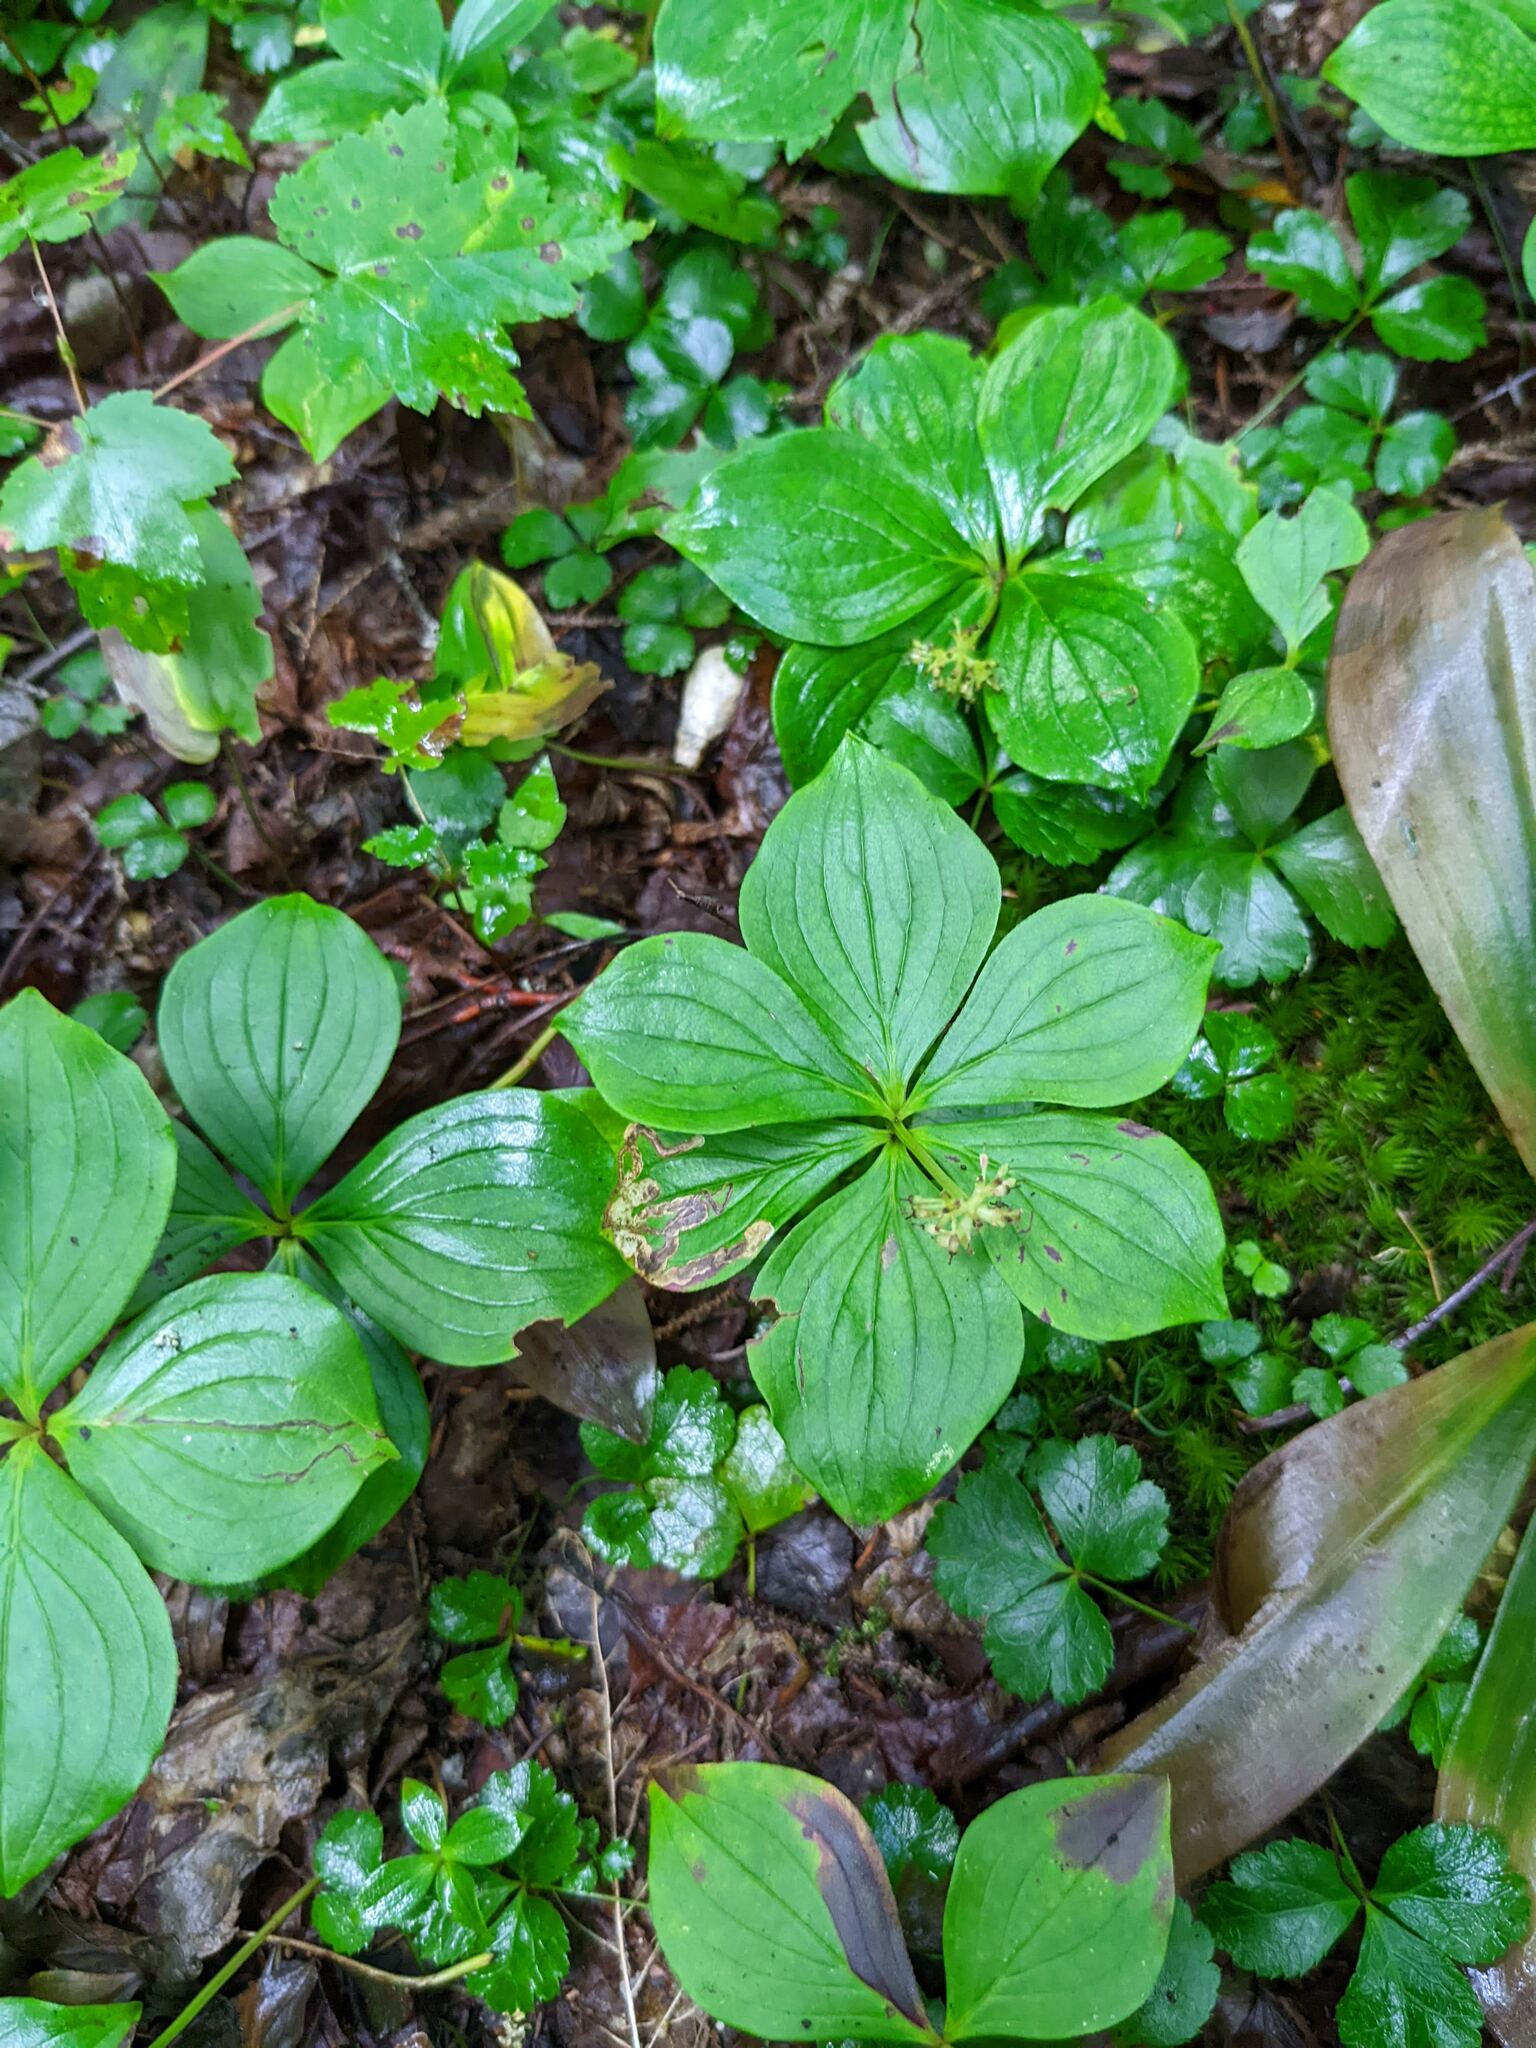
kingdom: Plantae
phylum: Tracheophyta
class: Magnoliopsida
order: Cornales
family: Cornaceae
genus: Cornus
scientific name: Cornus canadensis
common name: Creeping dogwood
